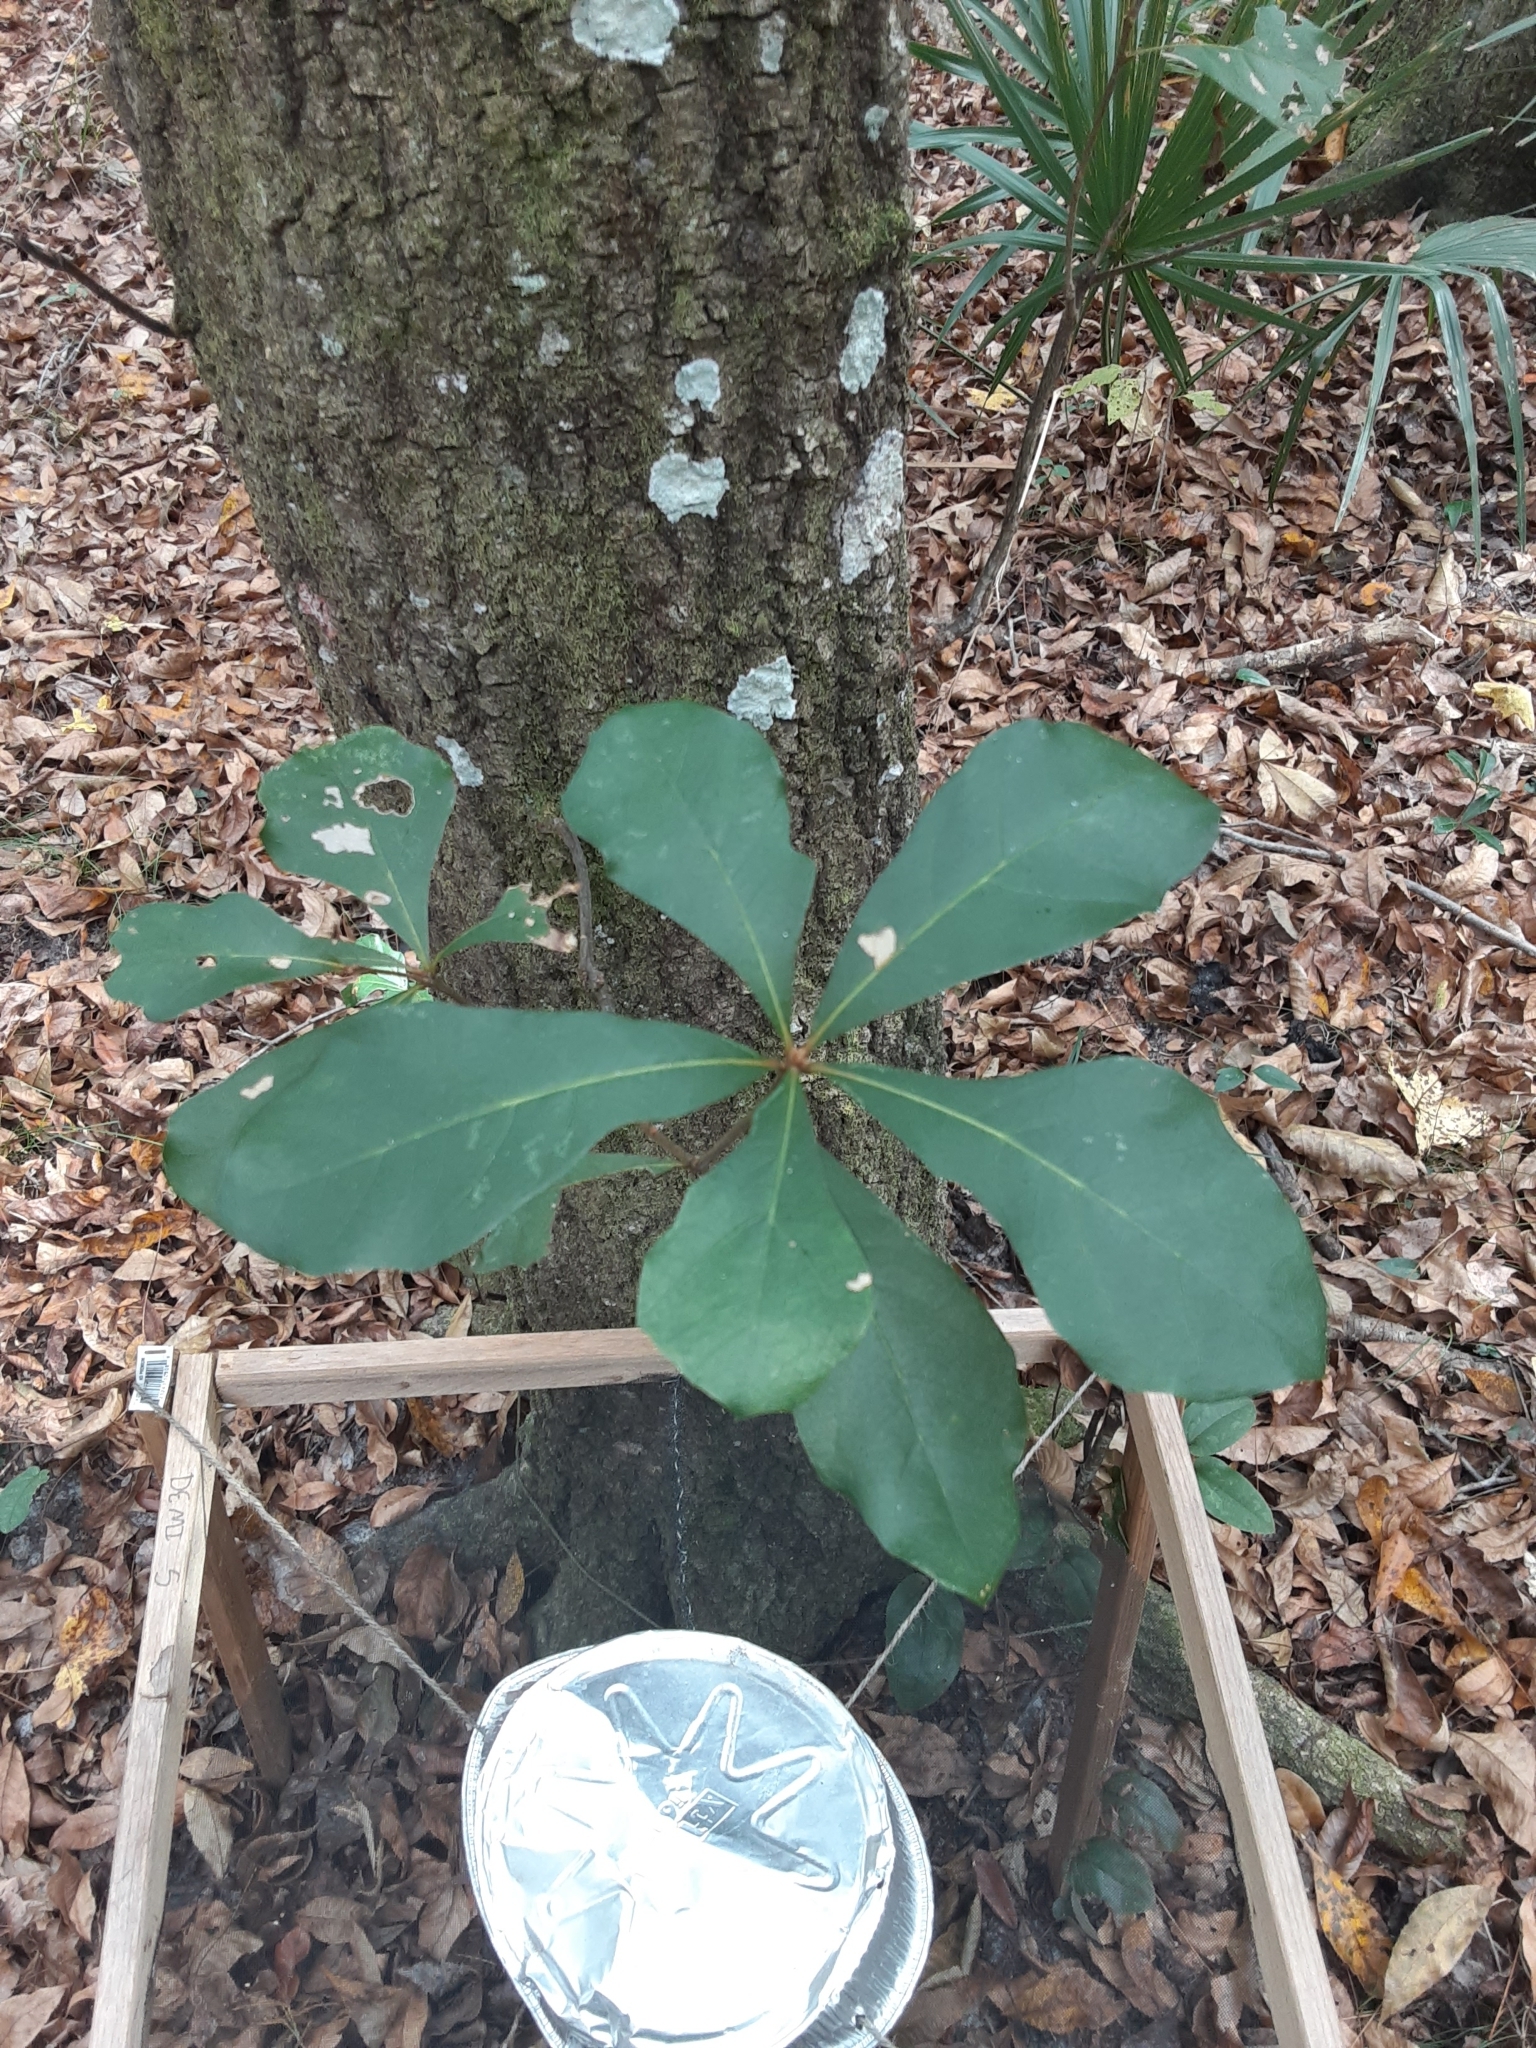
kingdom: Plantae
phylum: Tracheophyta
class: Magnoliopsida
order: Fagales
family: Fagaceae
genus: Quercus
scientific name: Quercus nigra
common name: Water oak
